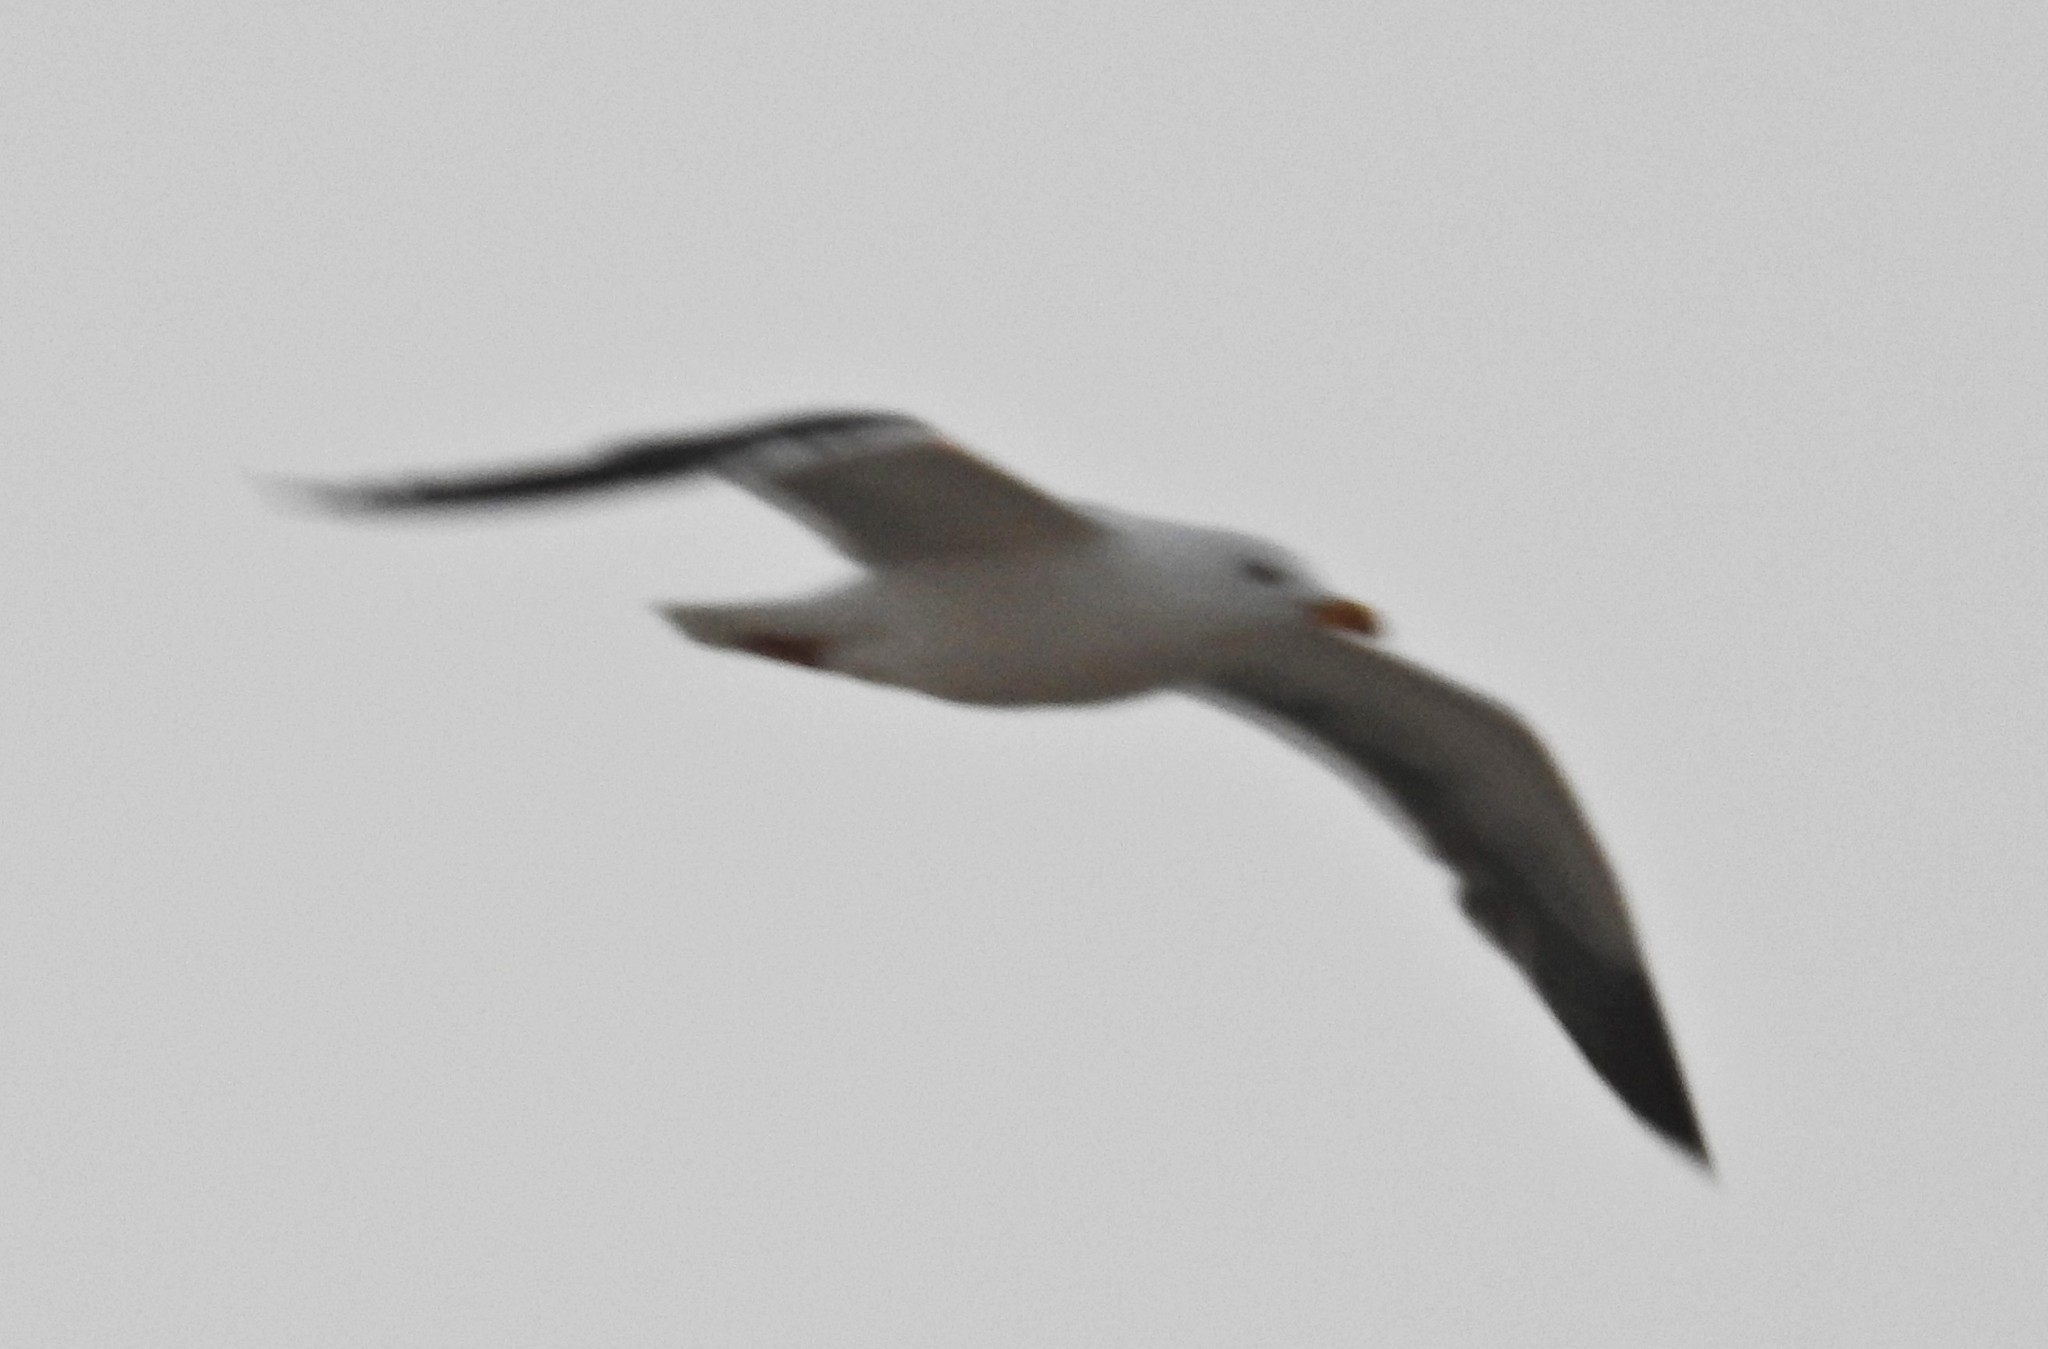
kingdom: Animalia
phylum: Chordata
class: Aves
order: Charadriiformes
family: Laridae
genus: Larus
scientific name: Larus fuscus
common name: Lesser black-backed gull
